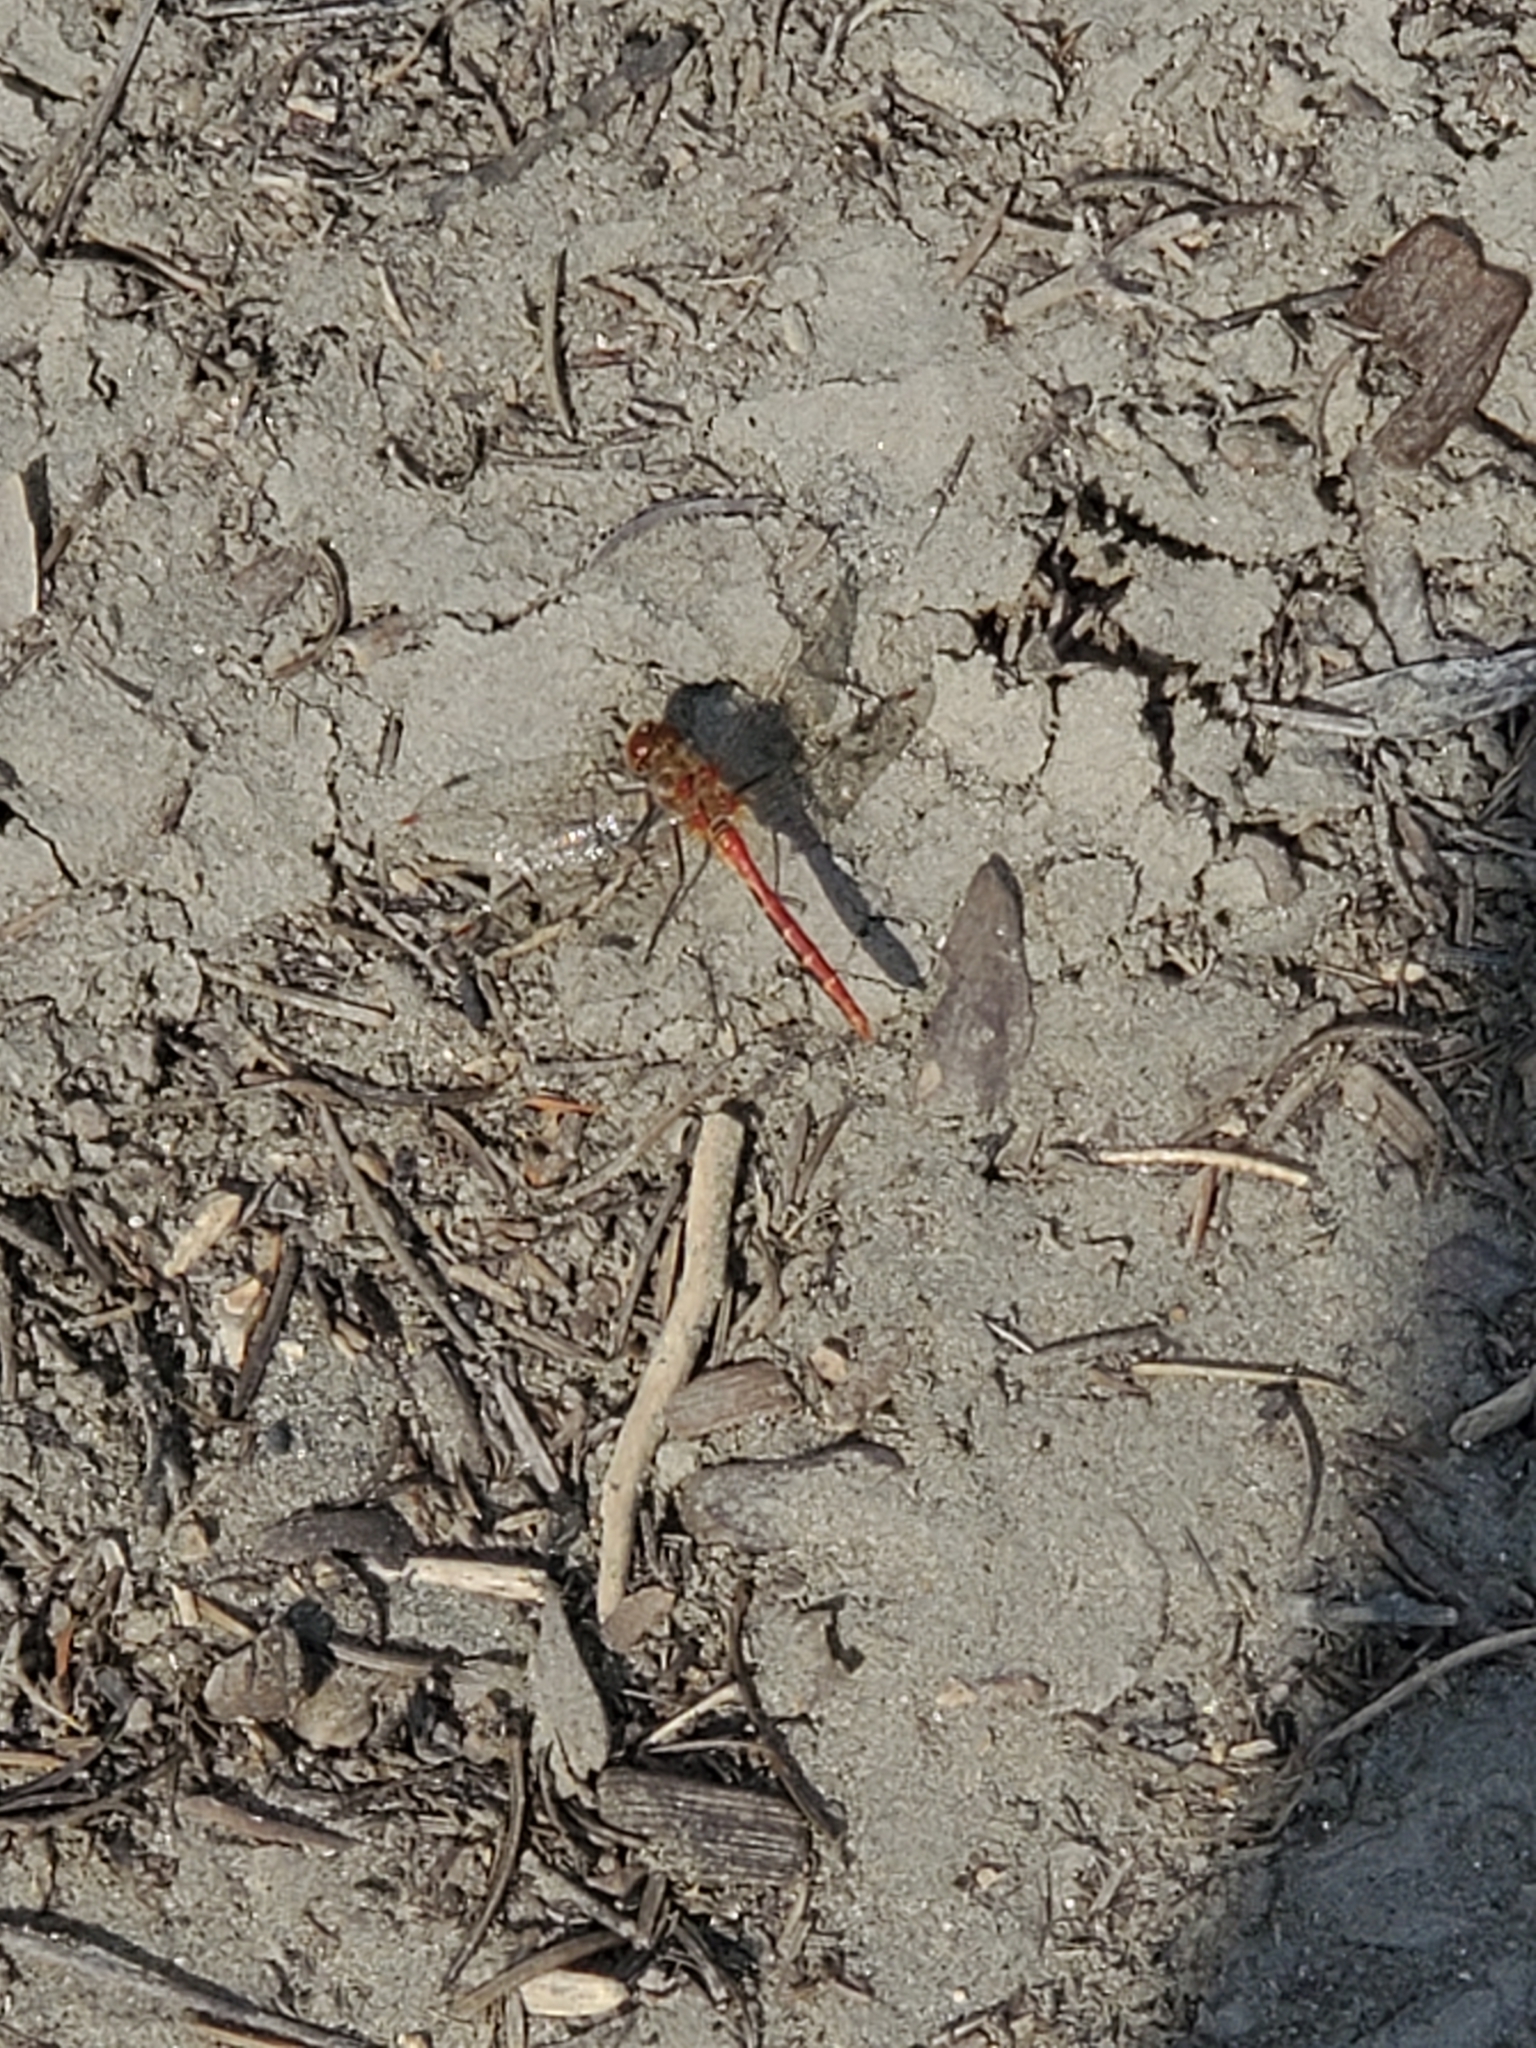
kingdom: Animalia
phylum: Arthropoda
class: Insecta
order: Odonata
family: Libellulidae
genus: Sympetrum
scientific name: Sympetrum pallipes
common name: Striped meadowhawk
